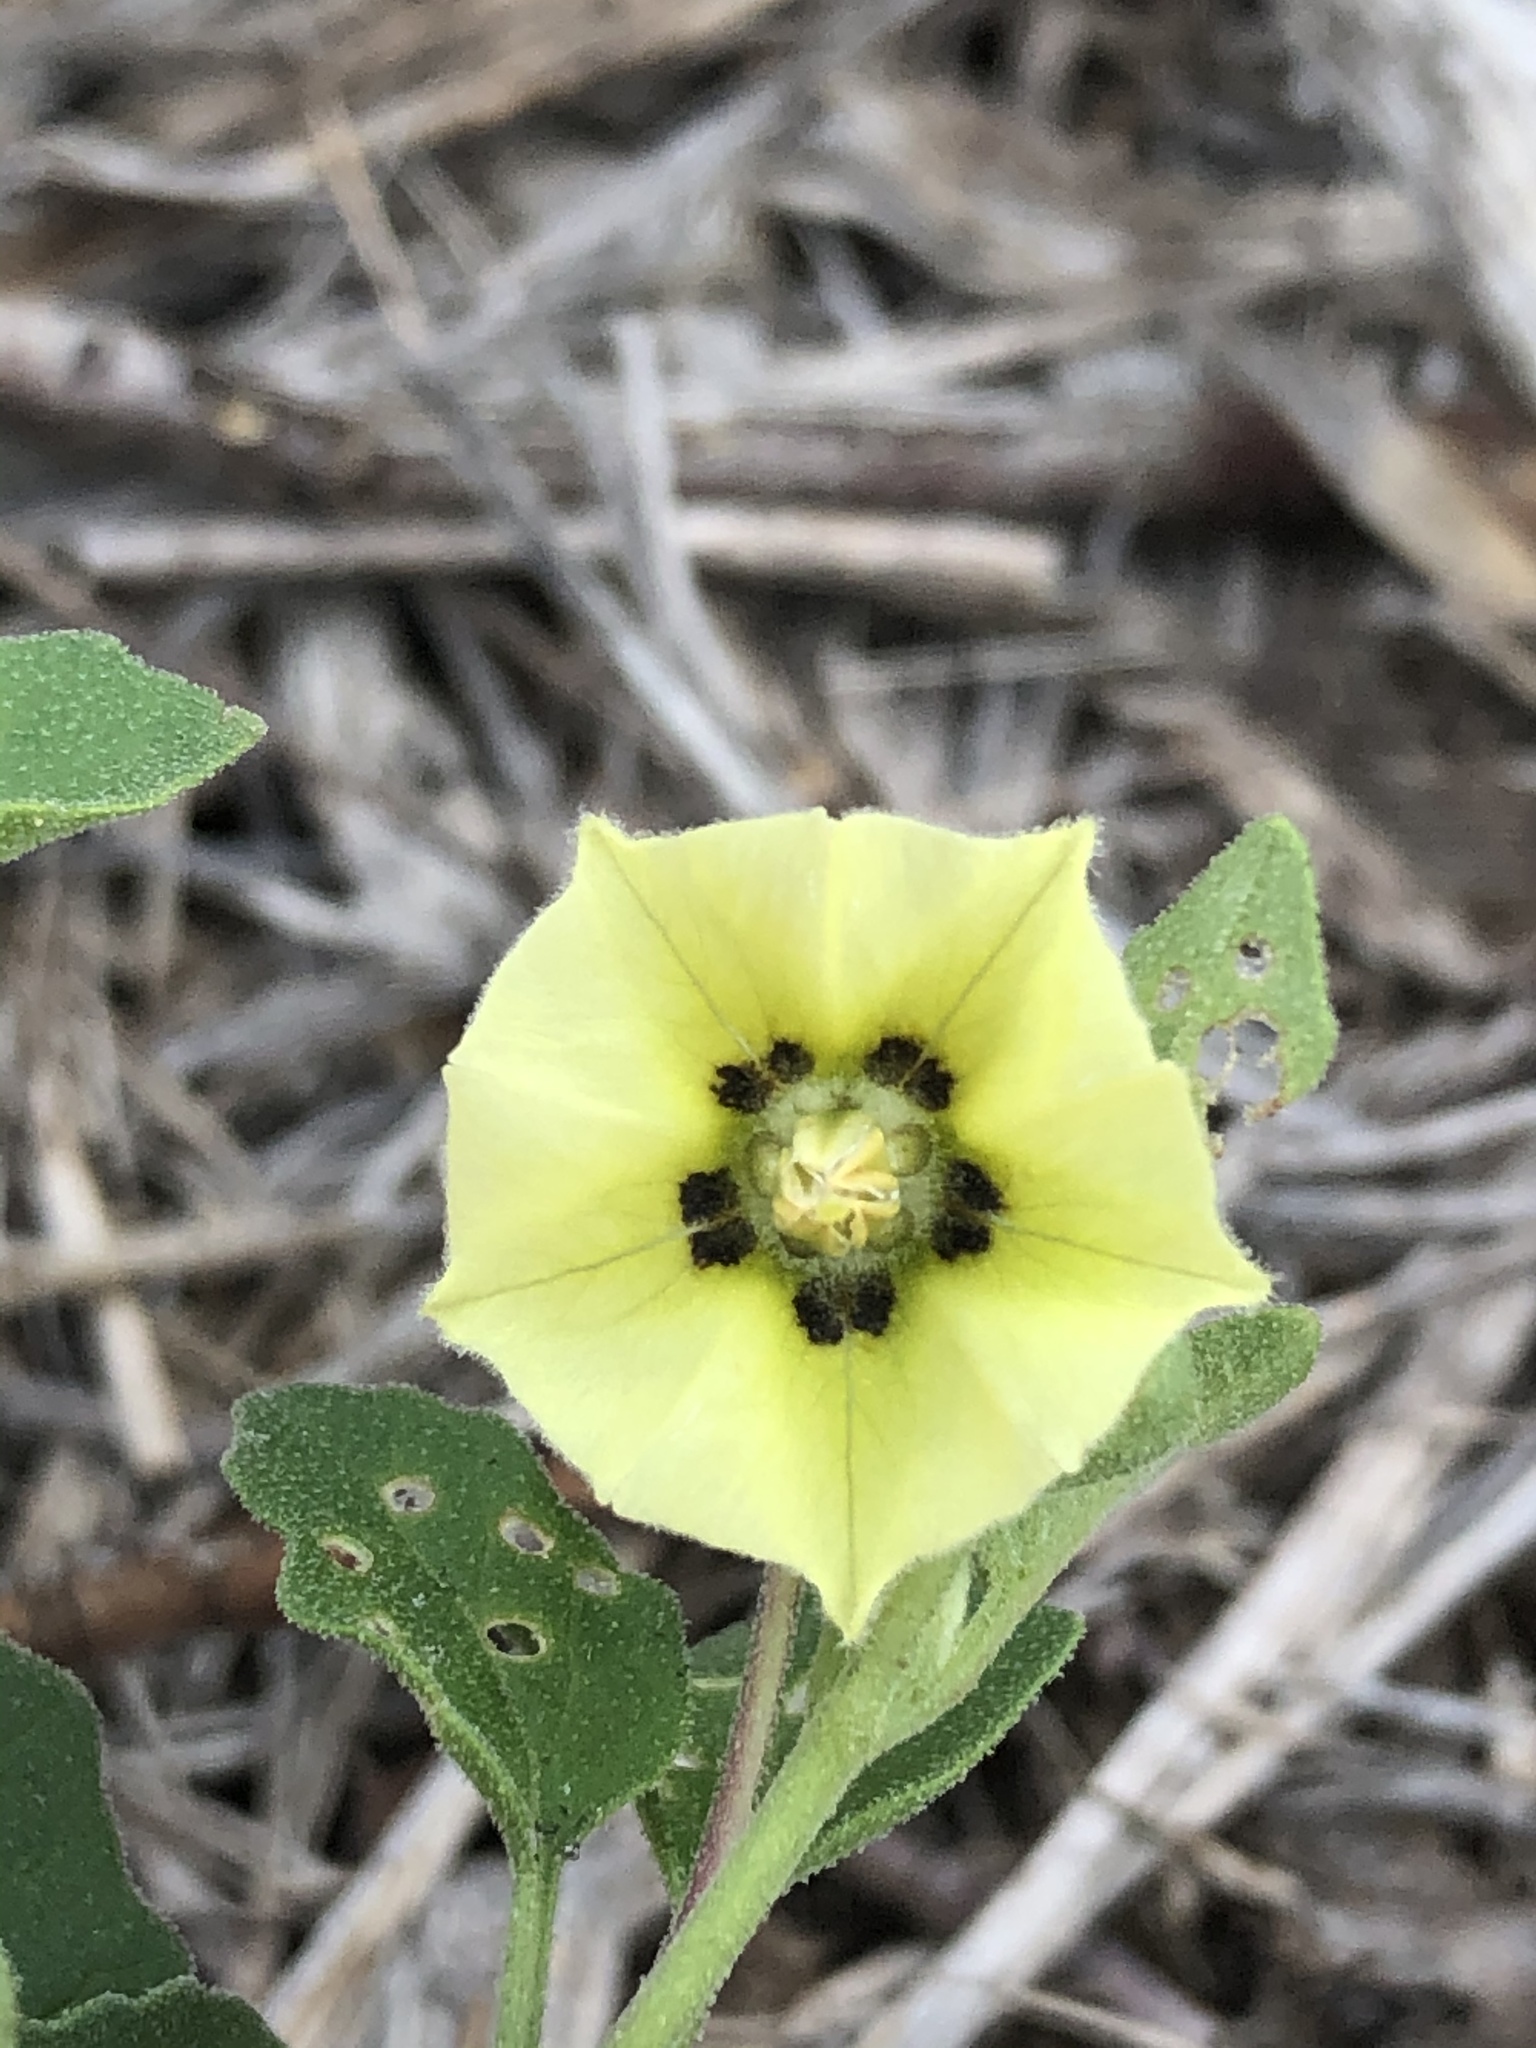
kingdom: Plantae
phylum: Tracheophyta
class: Magnoliopsida
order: Solanales
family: Solanaceae
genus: Physalis
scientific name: Physalis cinerascens
